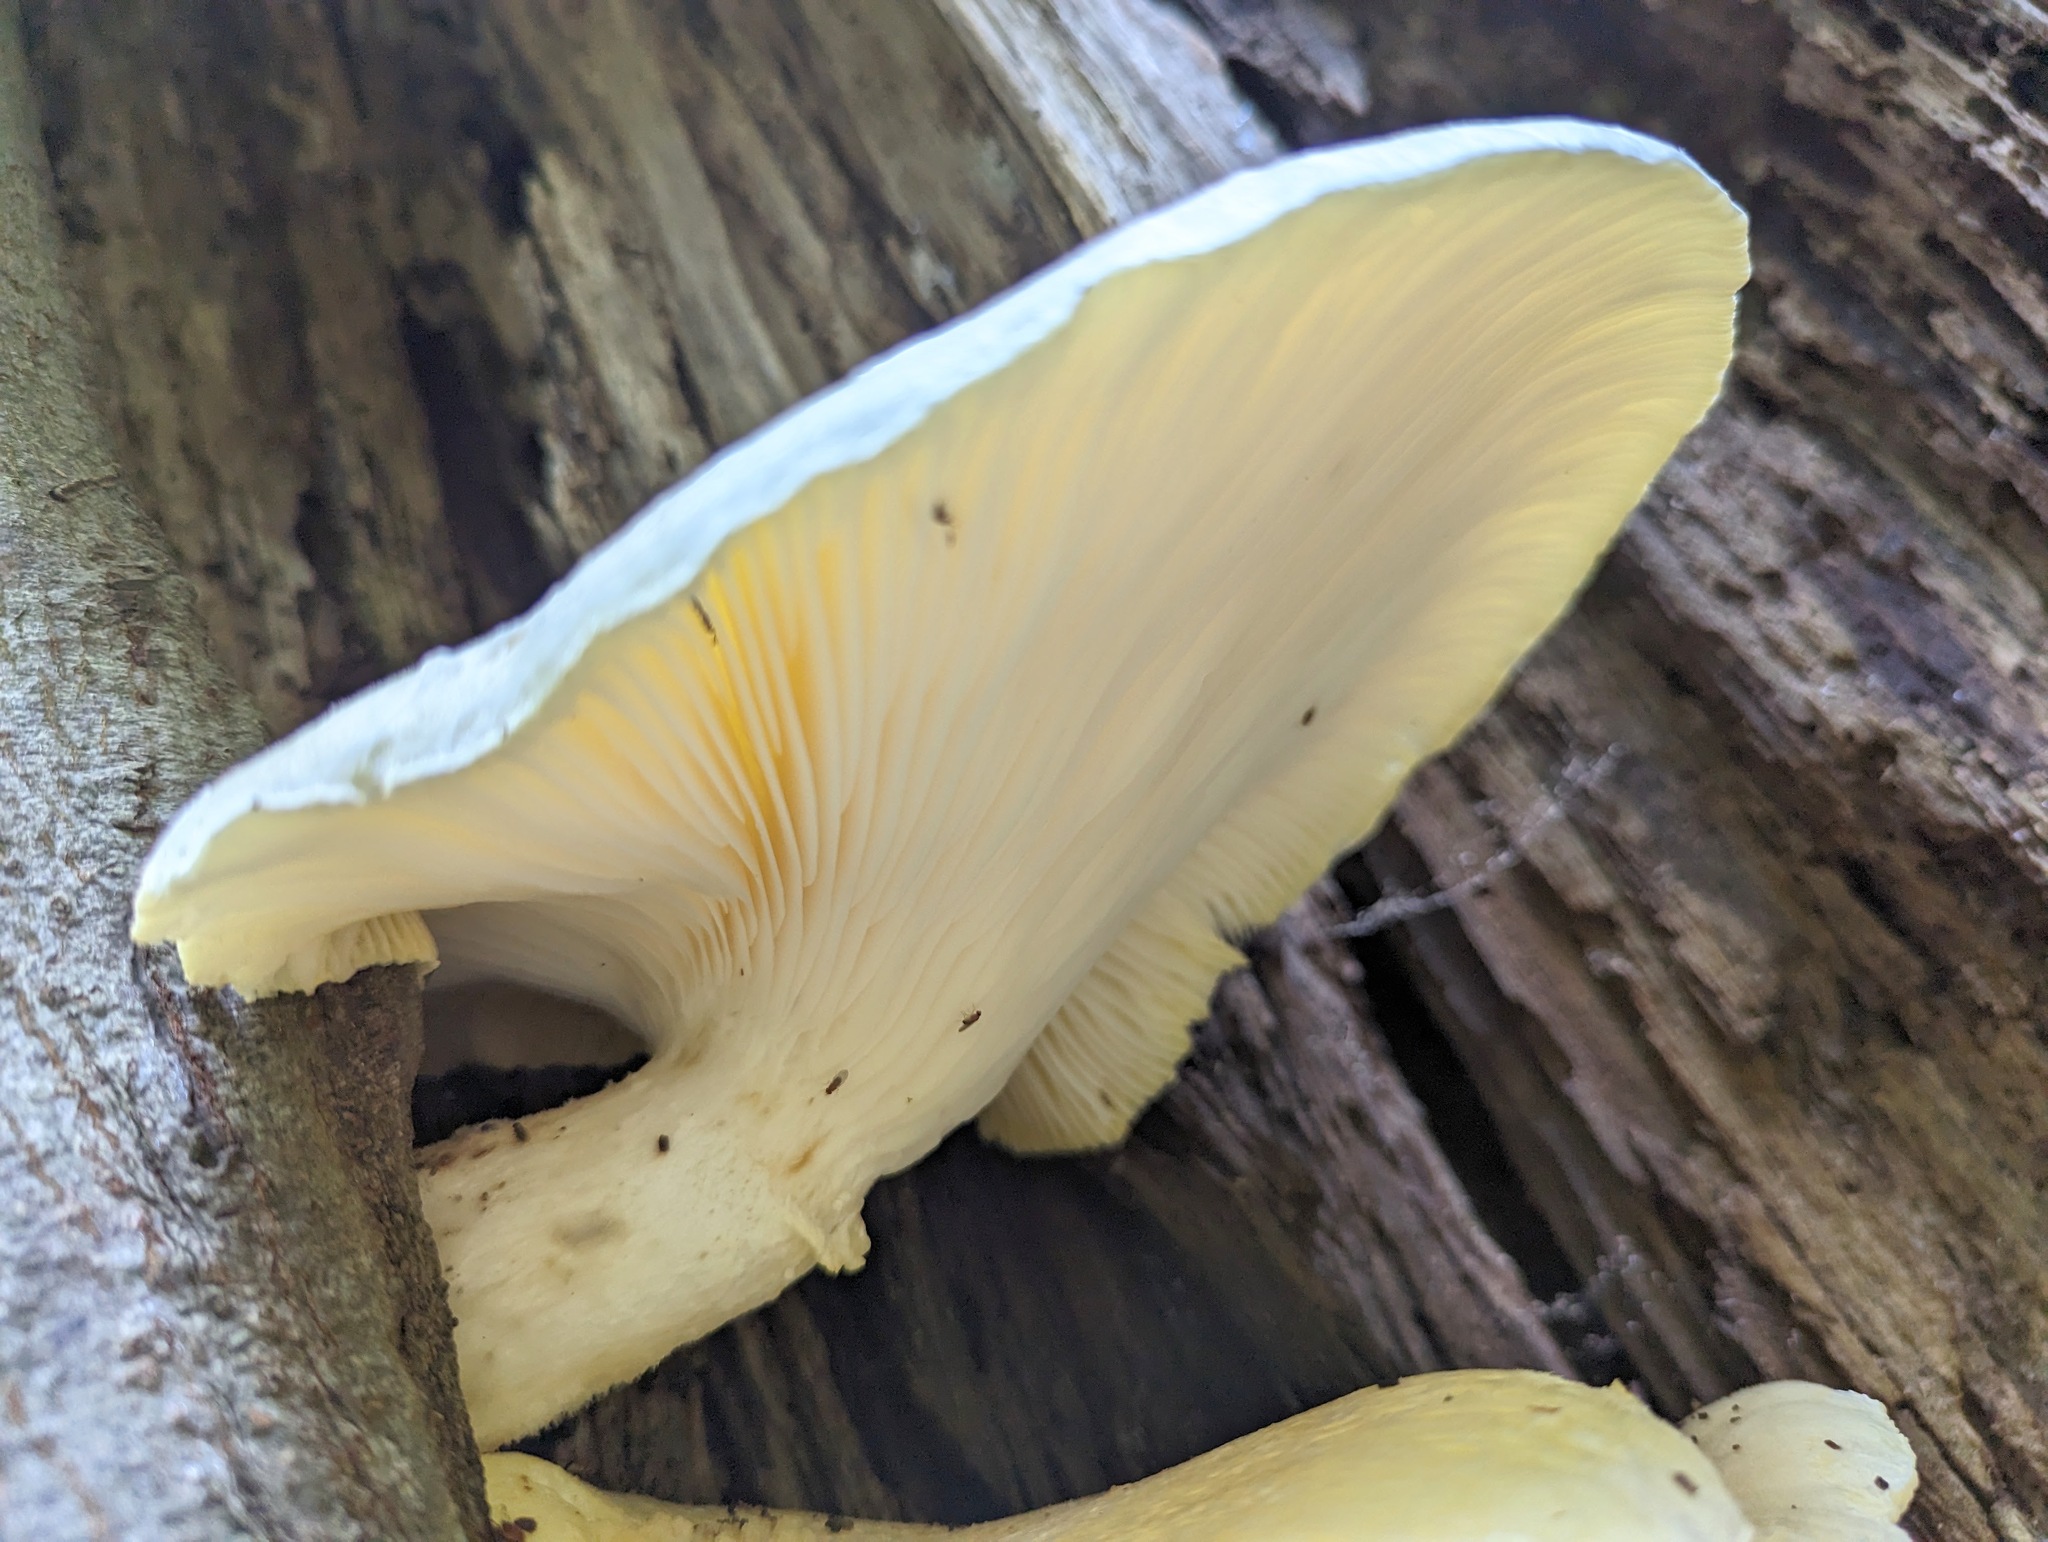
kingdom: Fungi
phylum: Basidiomycota
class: Agaricomycetes
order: Polyporales
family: Polyporaceae
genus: Lentinus
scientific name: Lentinus levis
